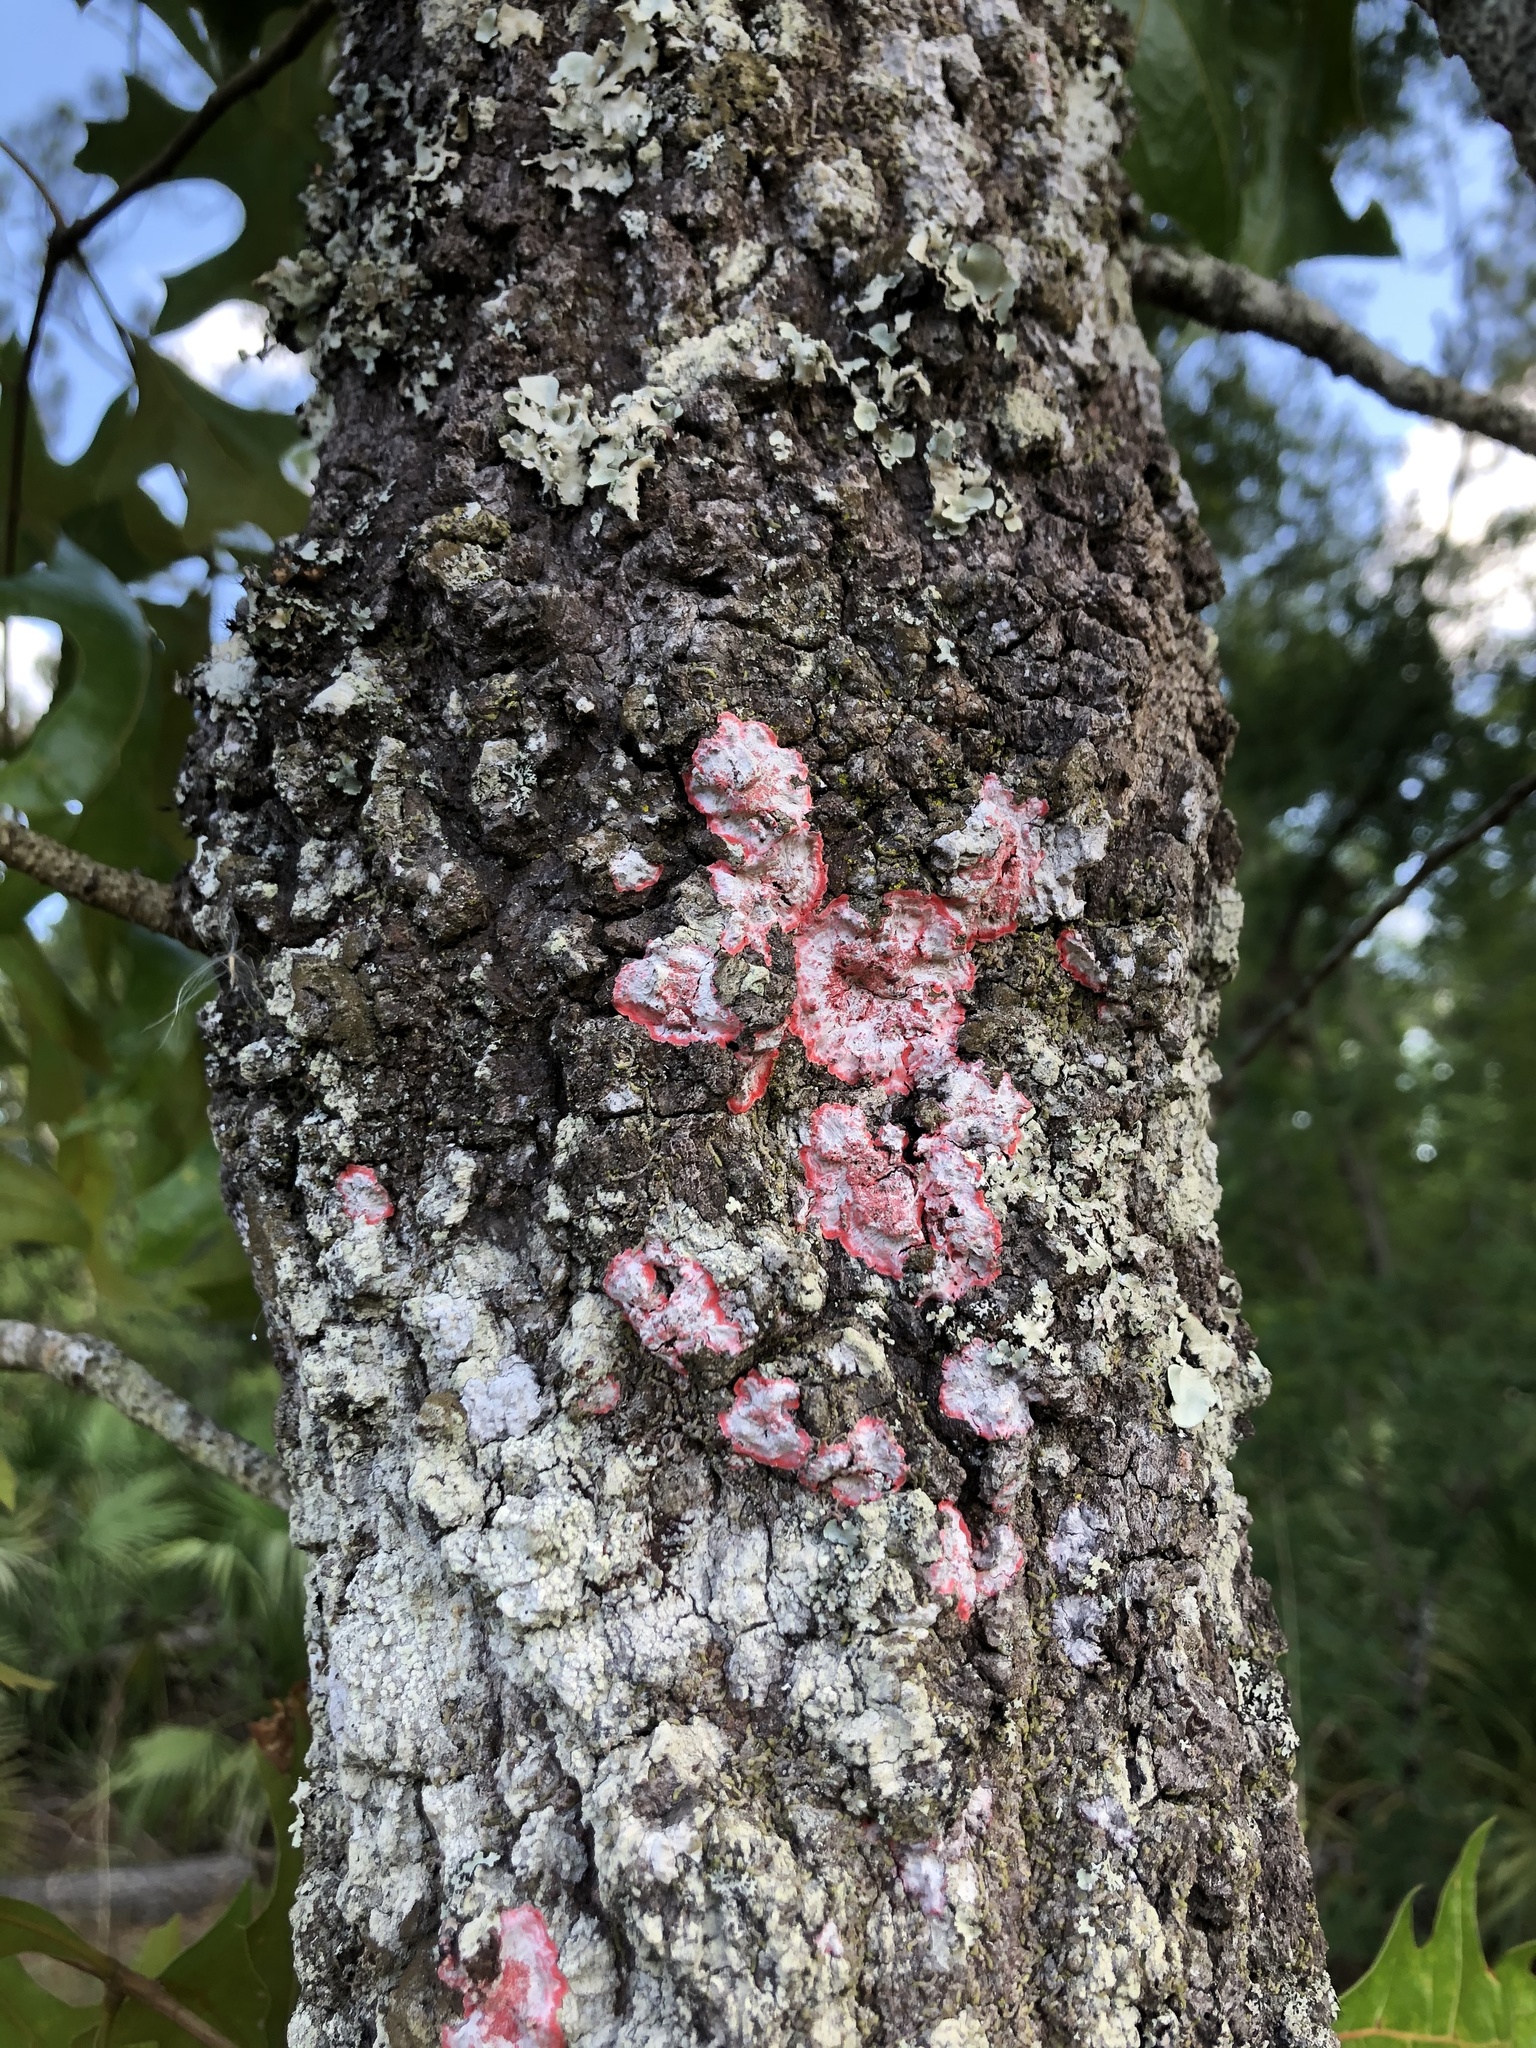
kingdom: Fungi
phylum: Ascomycota
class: Arthoniomycetes
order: Arthoniales
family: Arthoniaceae
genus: Herpothallon
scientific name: Herpothallon rubrocinctum
